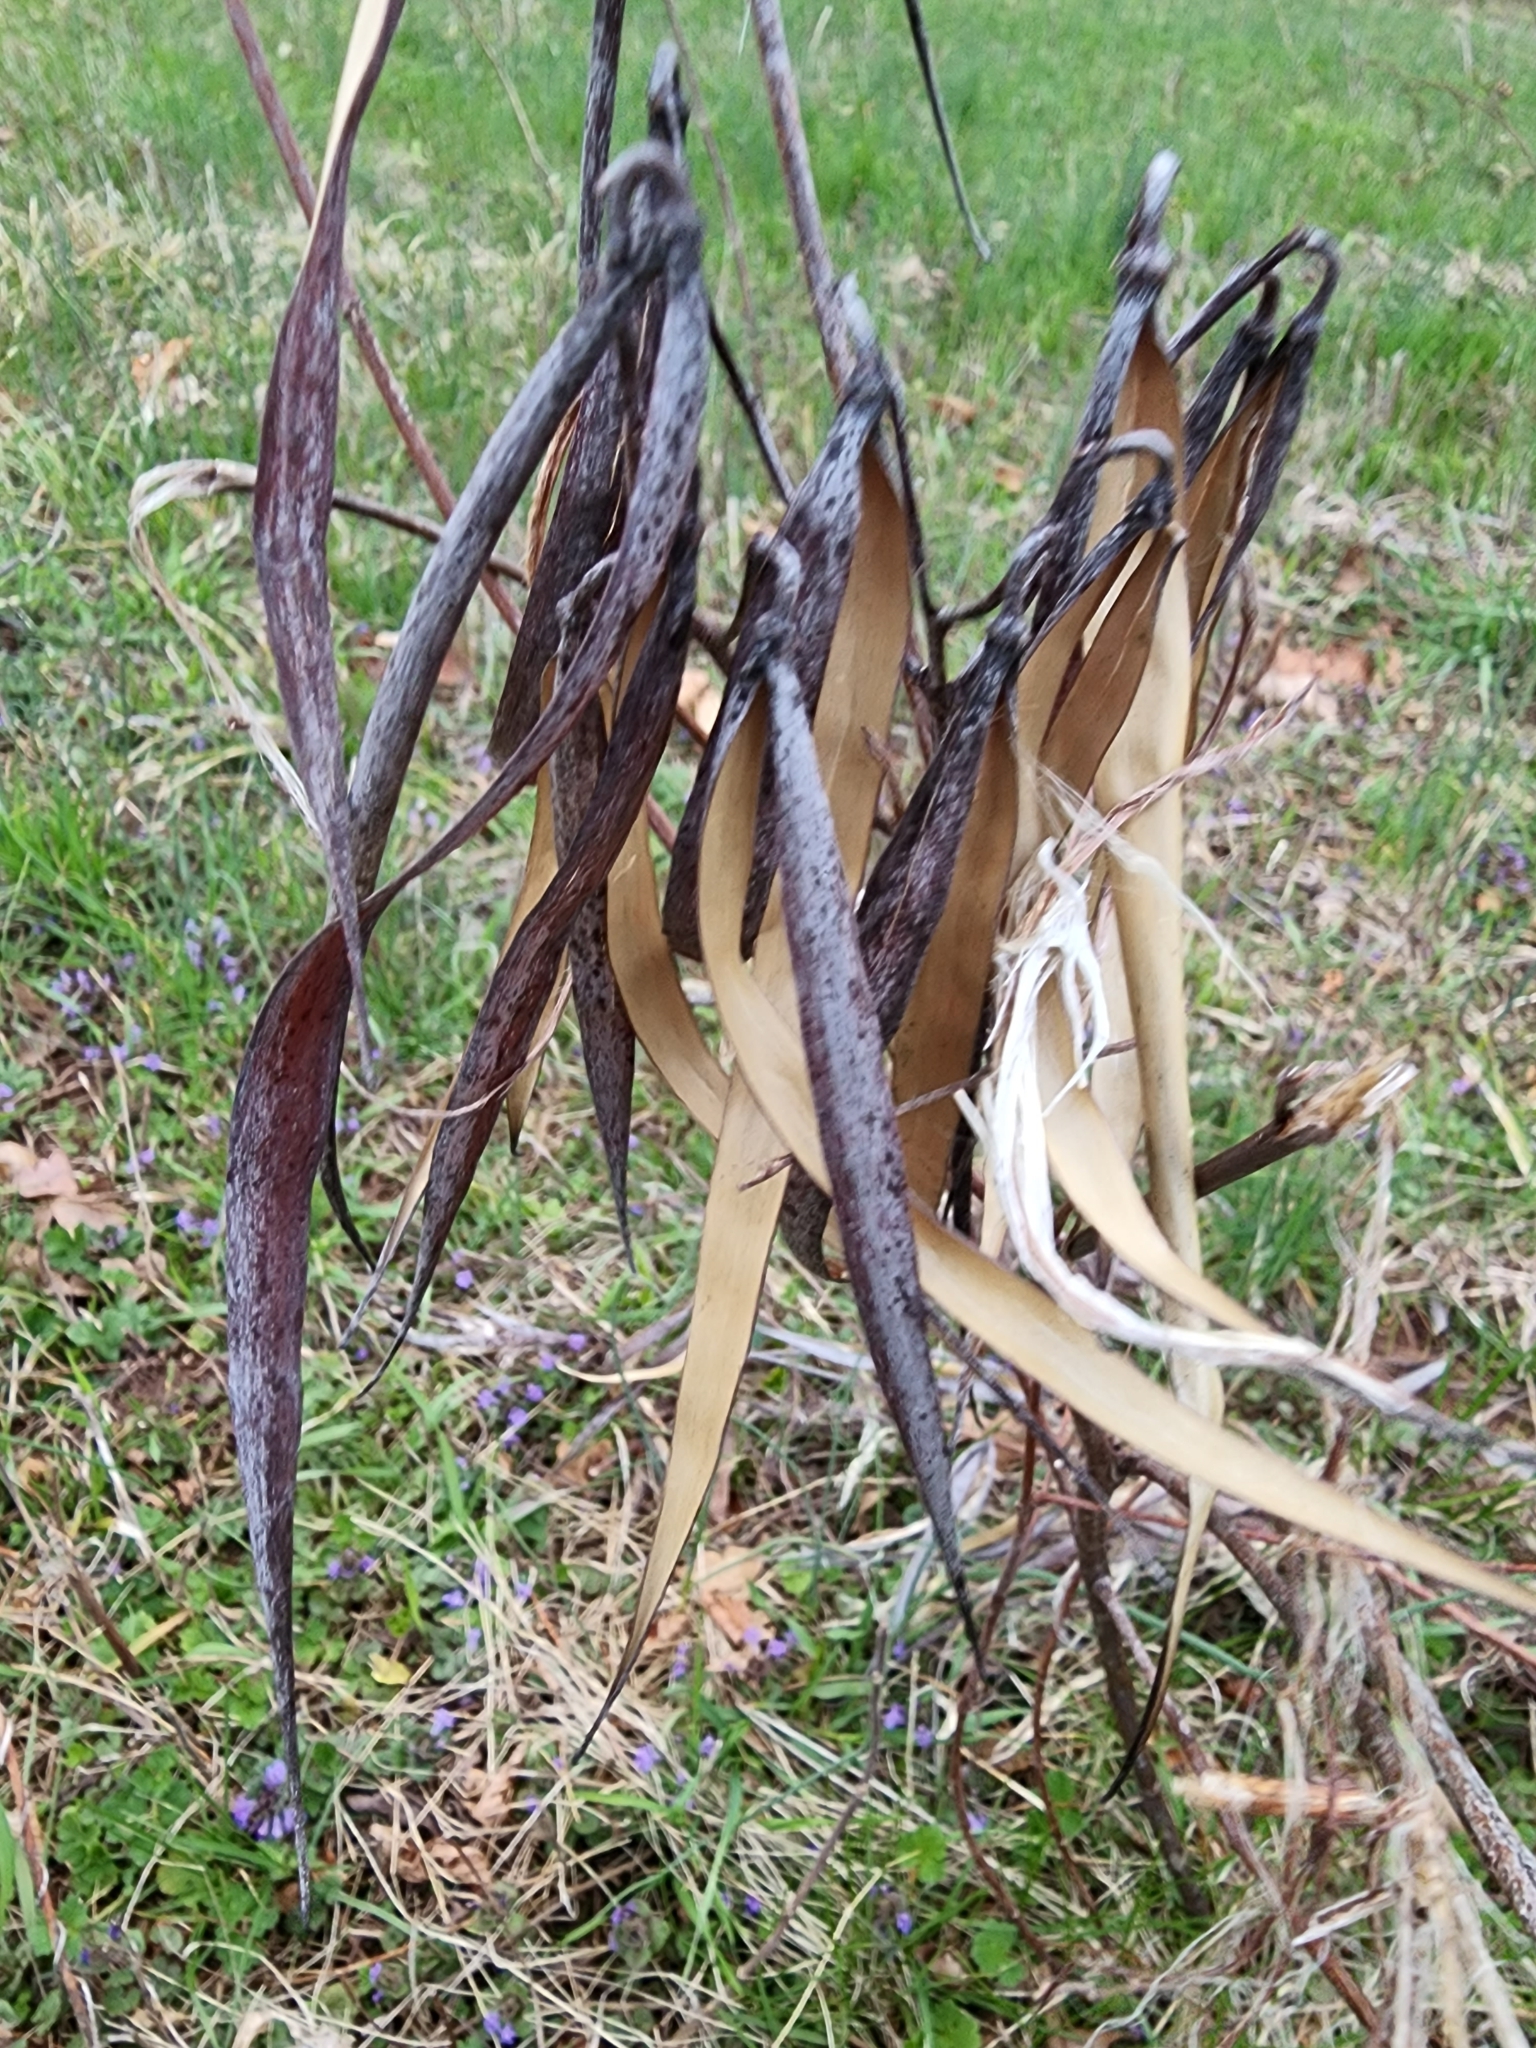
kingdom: Plantae
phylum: Tracheophyta
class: Magnoliopsida
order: Gentianales
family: Apocynaceae
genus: Apocynum
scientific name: Apocynum cannabinum
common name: Hemp dogbane
